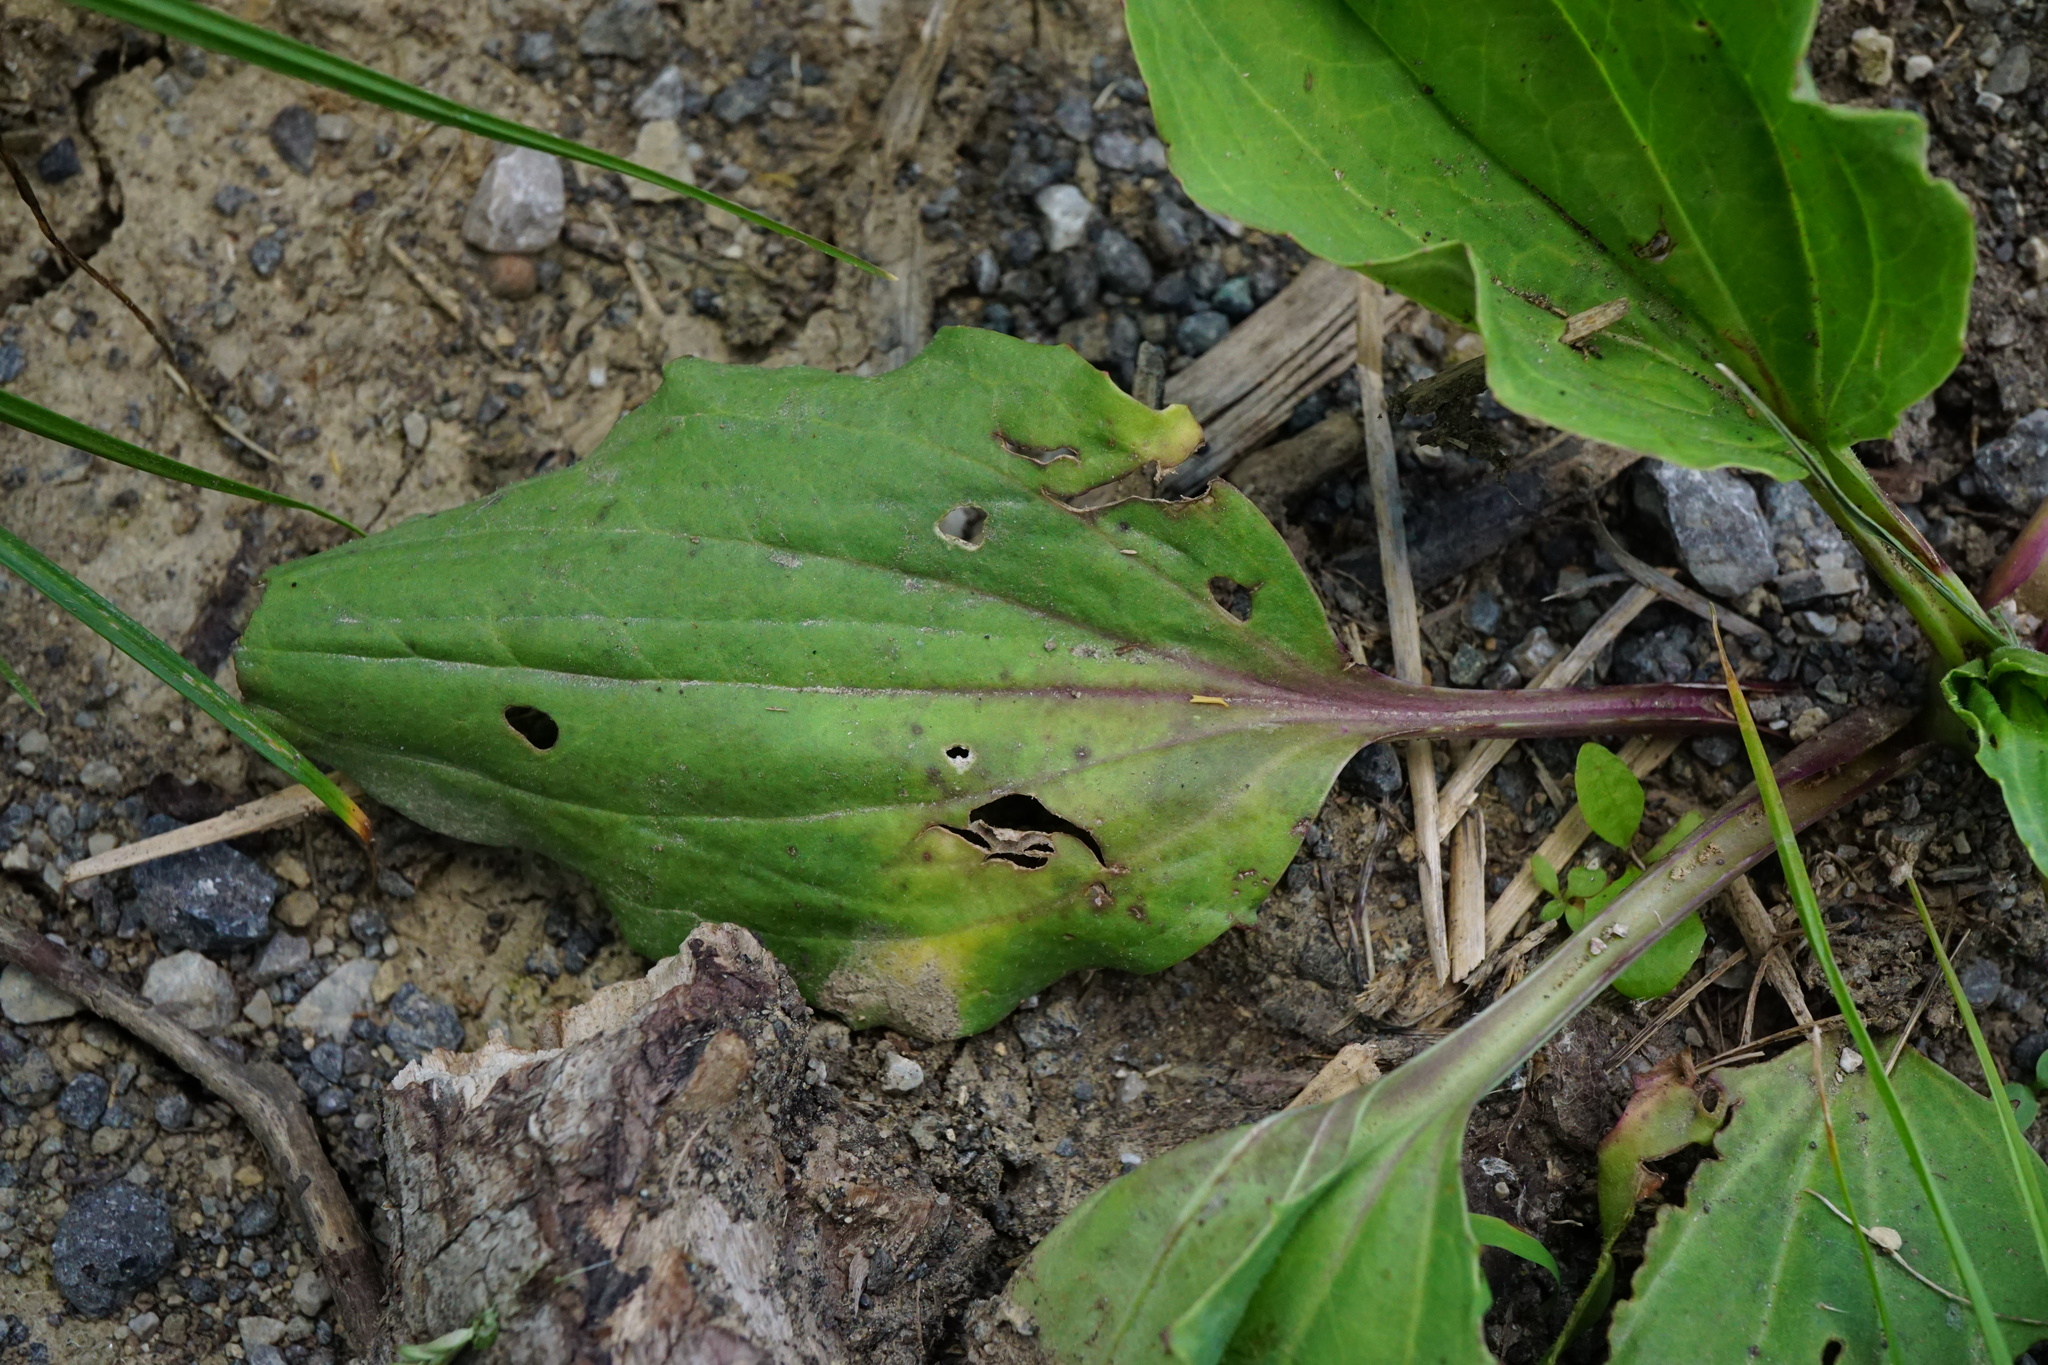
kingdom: Plantae
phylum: Tracheophyta
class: Magnoliopsida
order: Lamiales
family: Plantaginaceae
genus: Plantago
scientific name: Plantago major
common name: Common plantain
